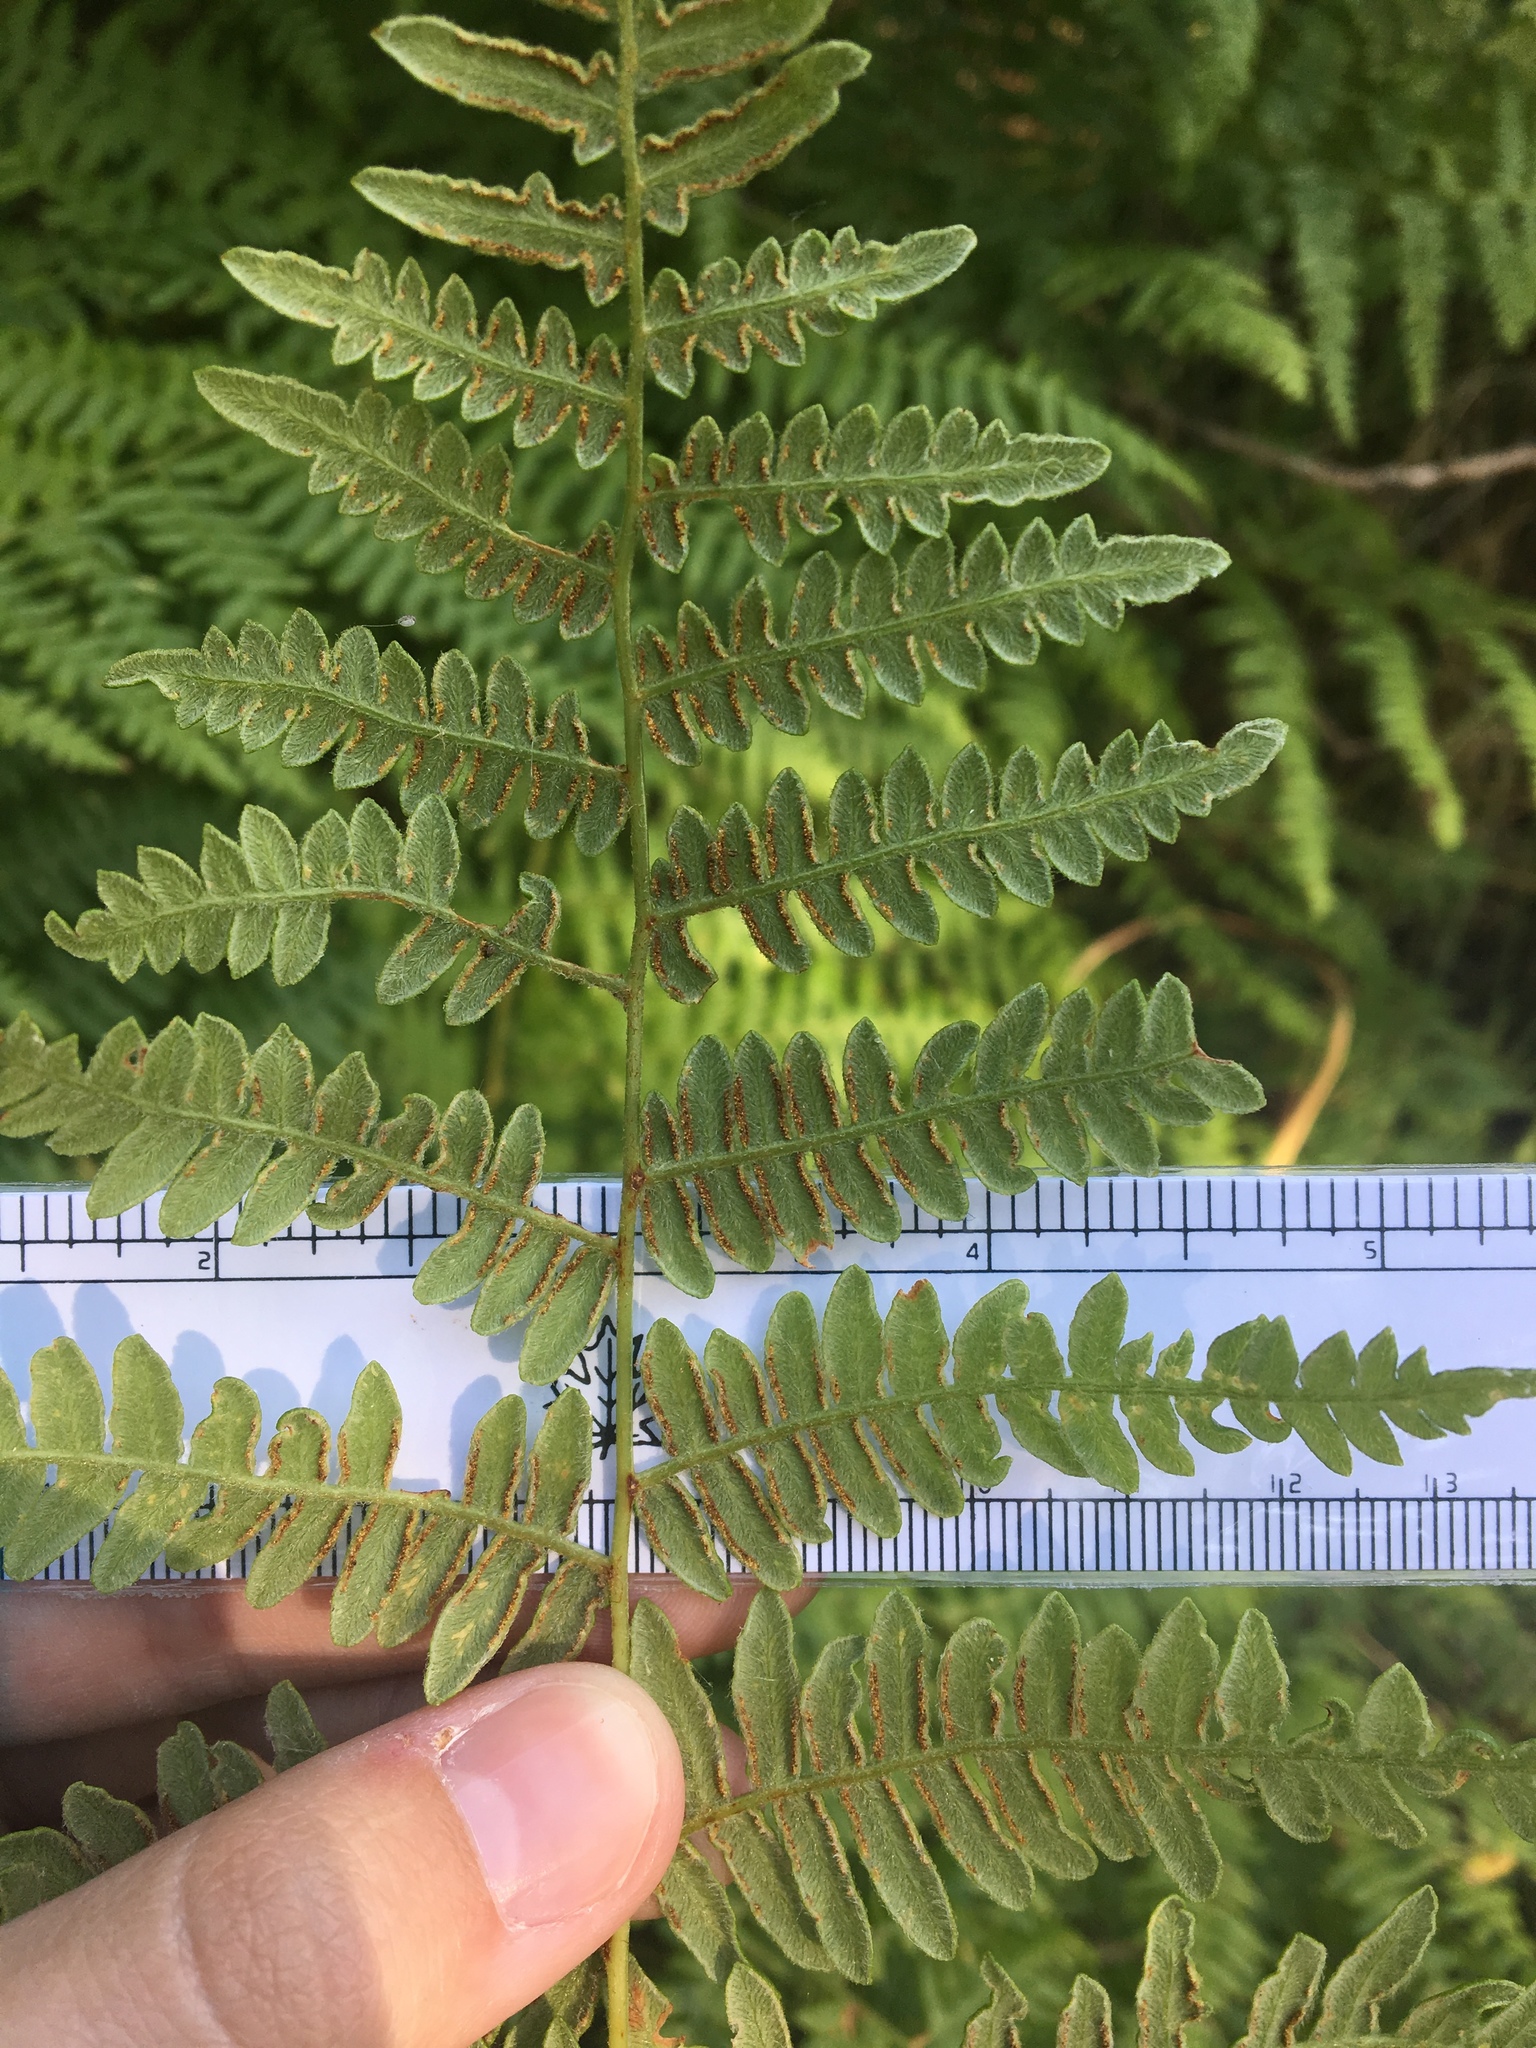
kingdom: Plantae
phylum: Tracheophyta
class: Polypodiopsida
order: Polypodiales
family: Dennstaedtiaceae
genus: Pteridium
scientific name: Pteridium aquilinum
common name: Bracken
